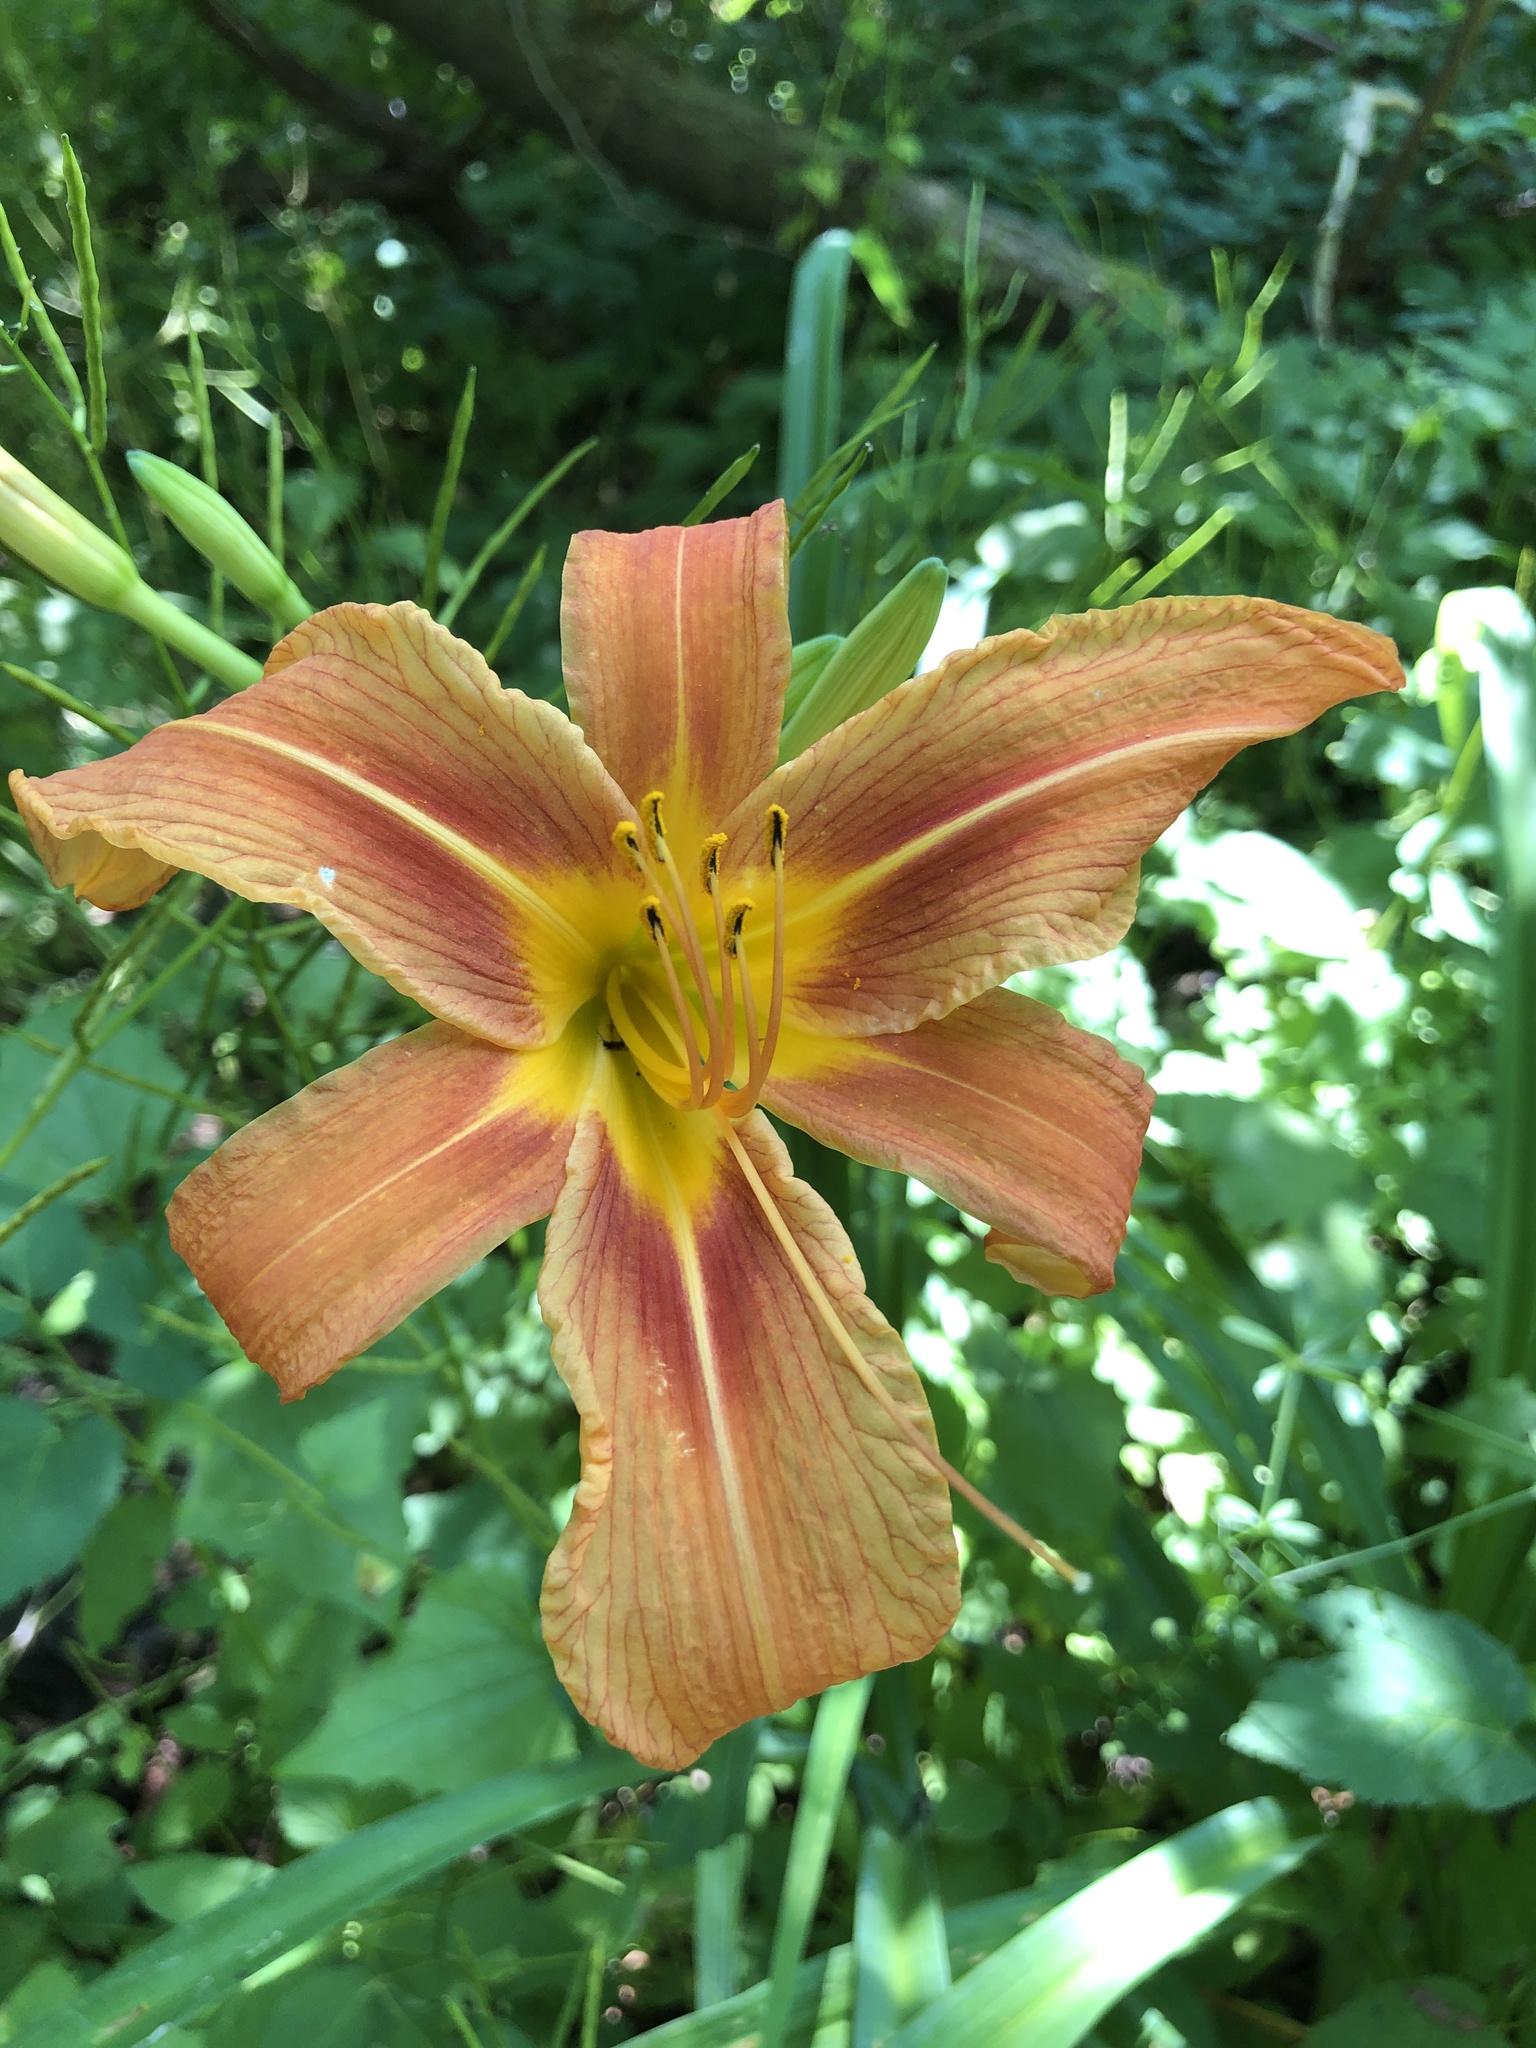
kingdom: Plantae
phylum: Tracheophyta
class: Liliopsida
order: Asparagales
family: Asphodelaceae
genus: Hemerocallis
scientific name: Hemerocallis fulva
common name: Orange day-lily
